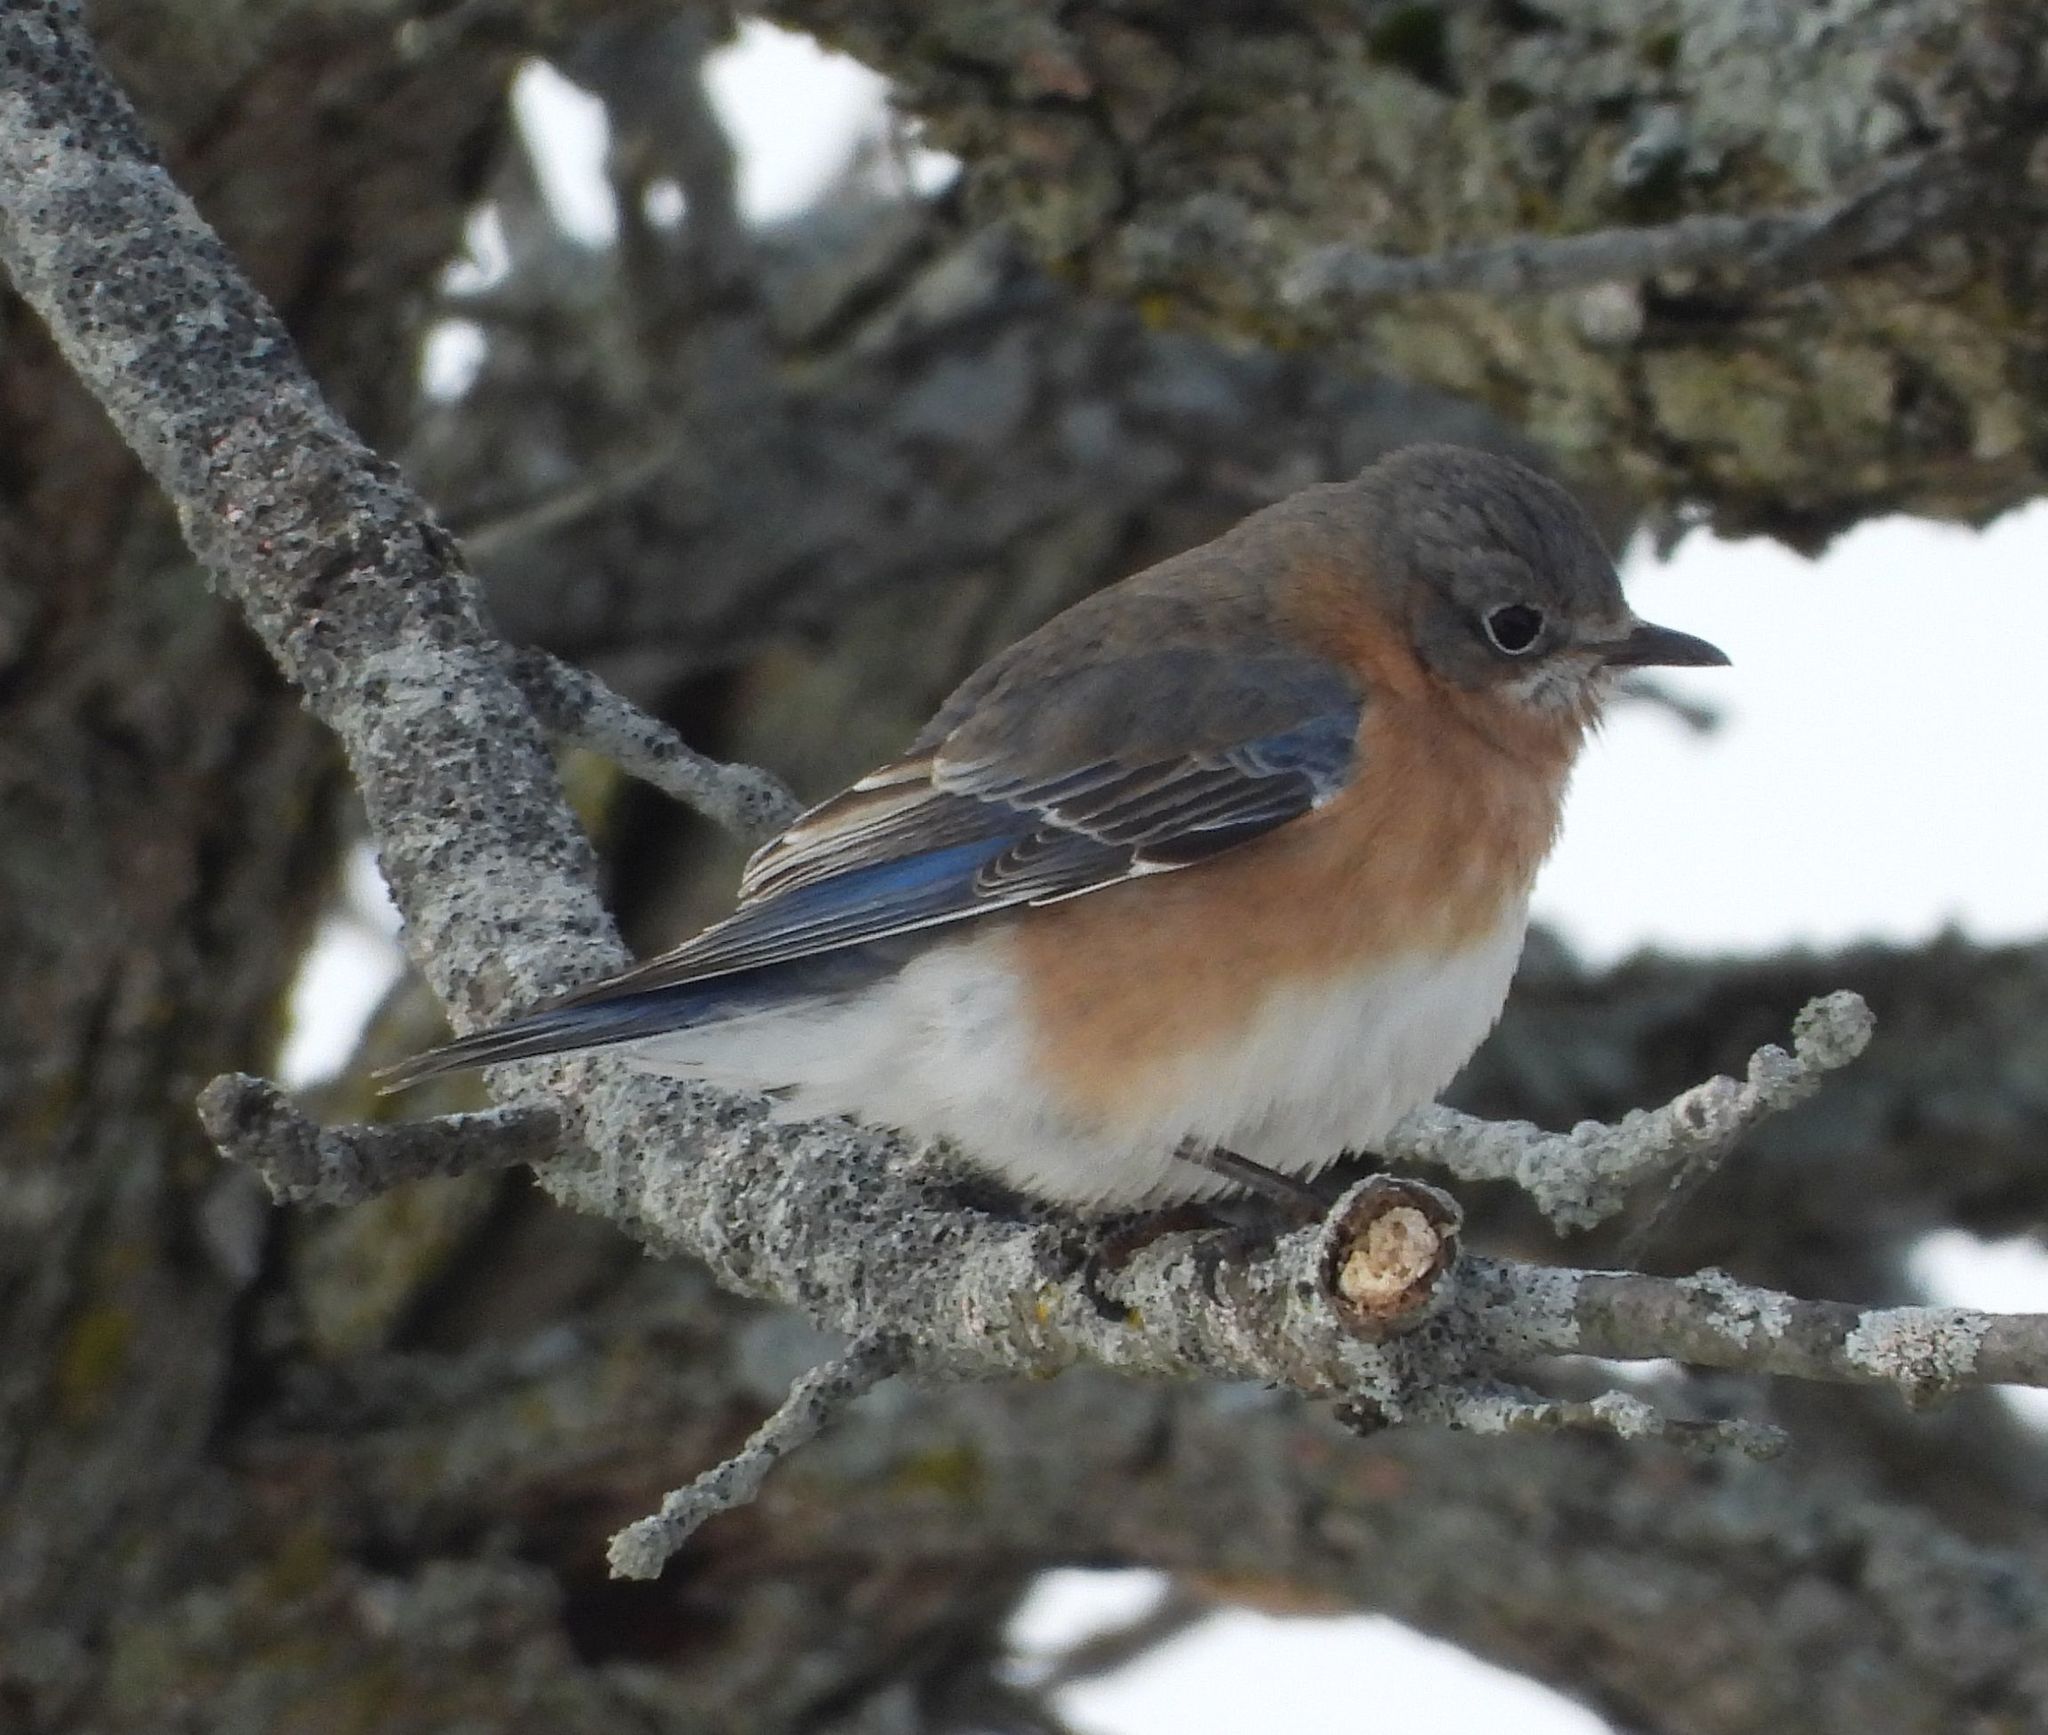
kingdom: Animalia
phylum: Chordata
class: Aves
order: Passeriformes
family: Turdidae
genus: Sialia
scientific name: Sialia sialis
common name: Eastern bluebird
